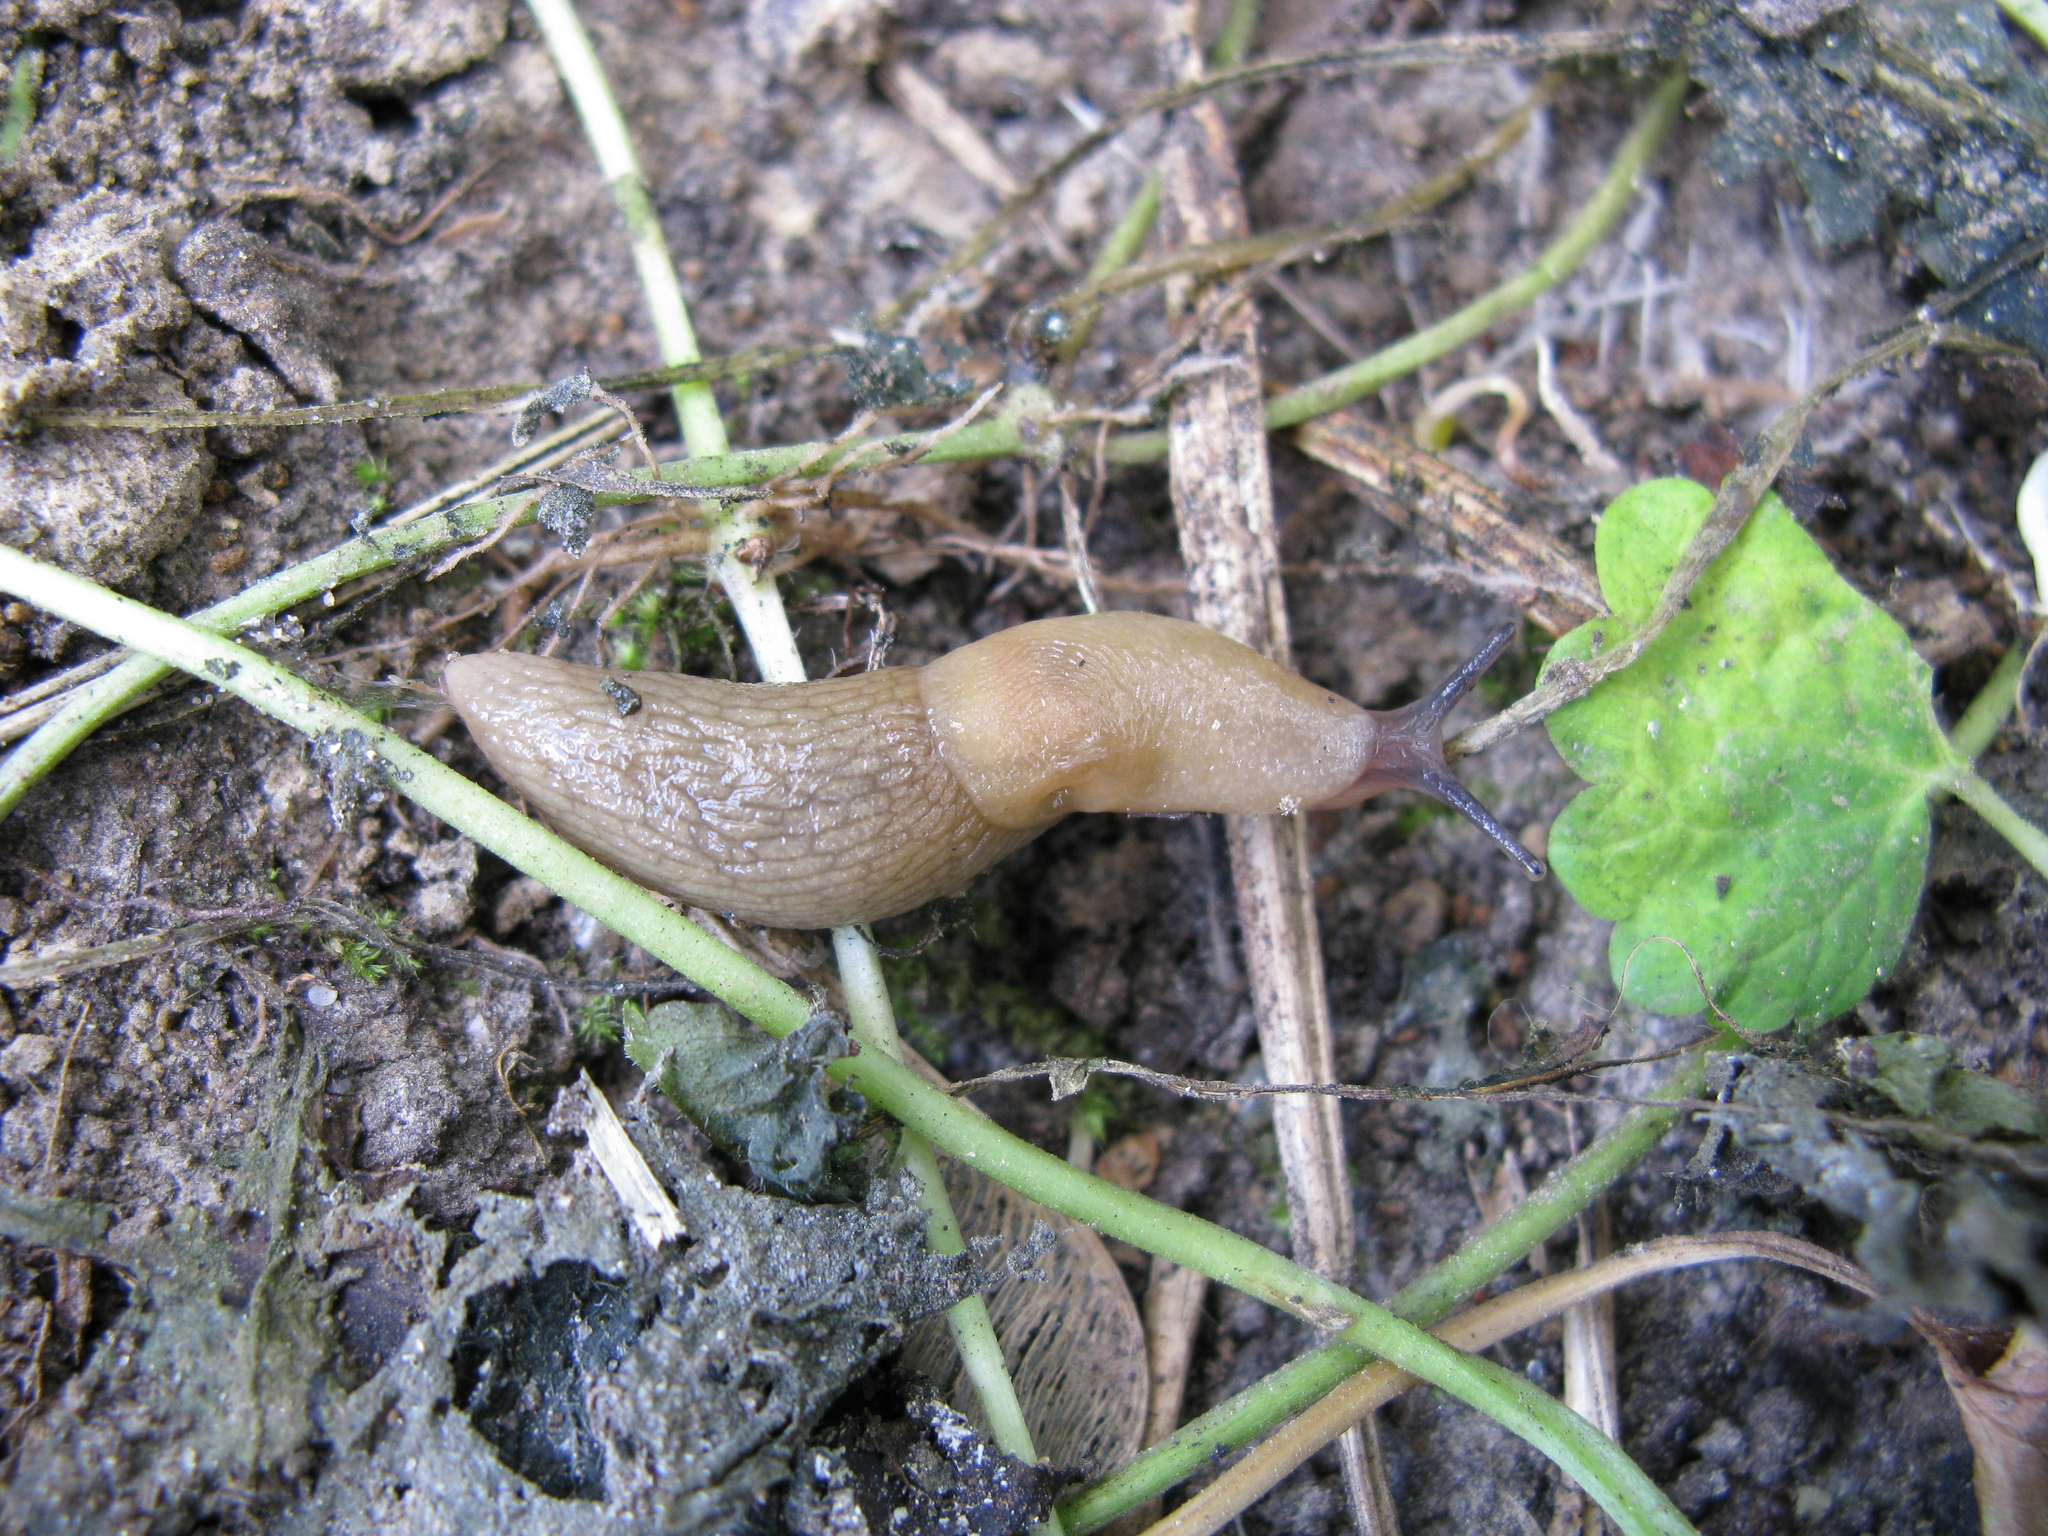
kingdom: Animalia
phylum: Mollusca
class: Gastropoda
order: Stylommatophora
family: Agriolimacidae
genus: Deroceras
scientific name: Deroceras caucasicum
